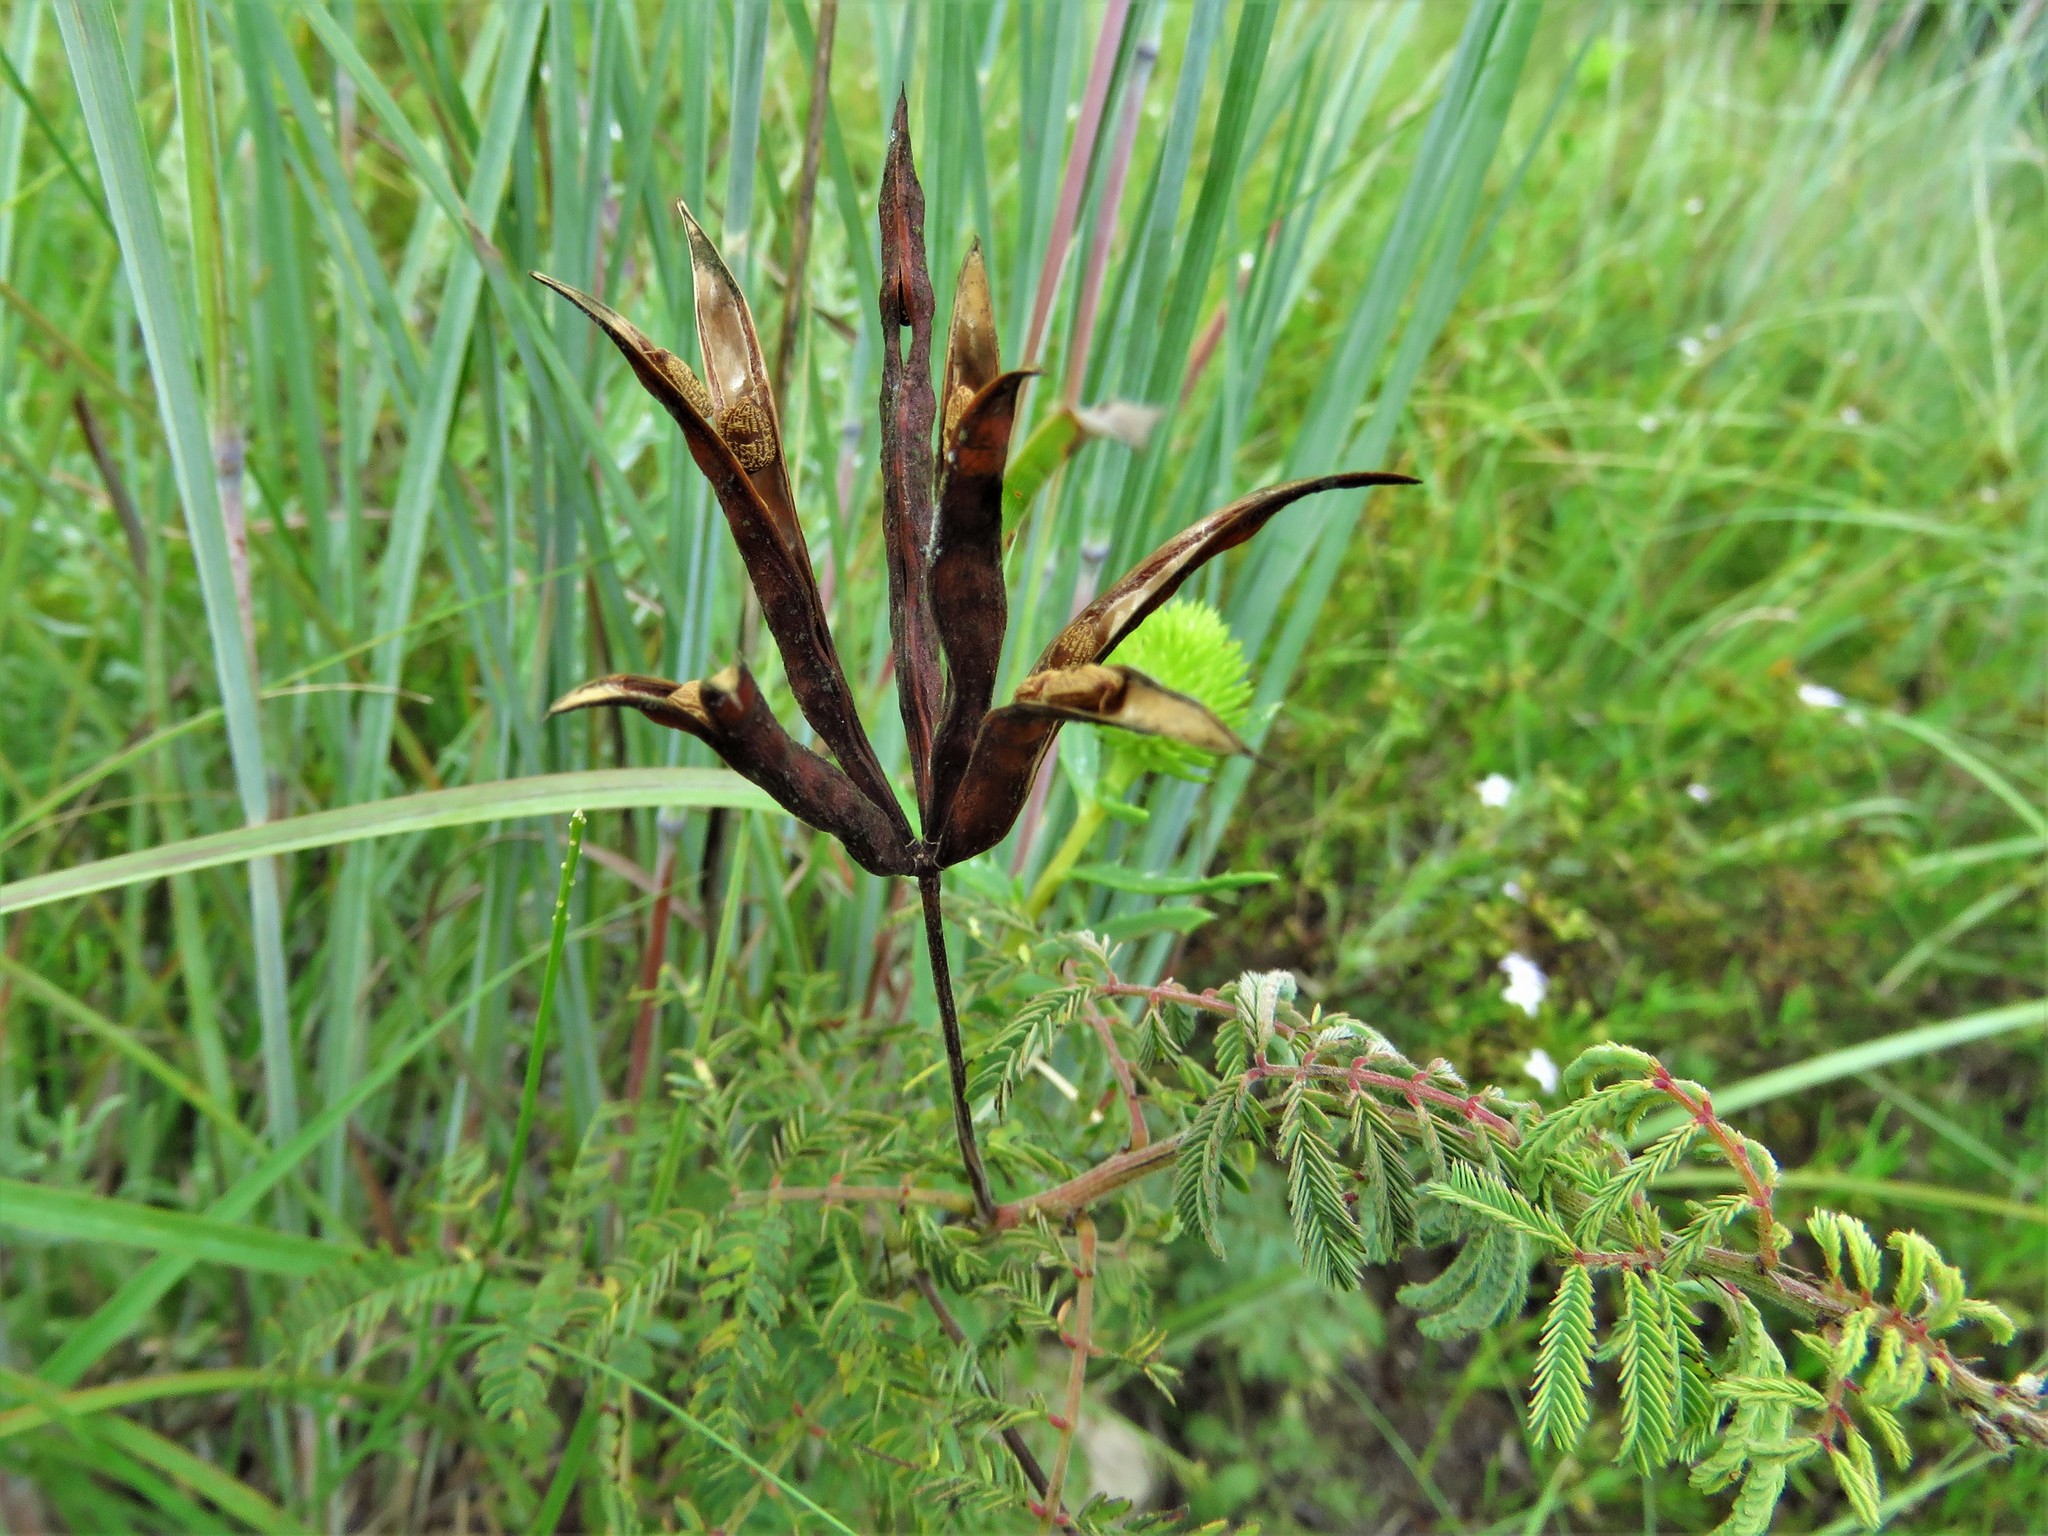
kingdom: Plantae
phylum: Tracheophyta
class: Magnoliopsida
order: Fabales
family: Fabaceae
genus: Desmanthus
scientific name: Desmanthus leptolobus
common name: Prairie-mimosa
